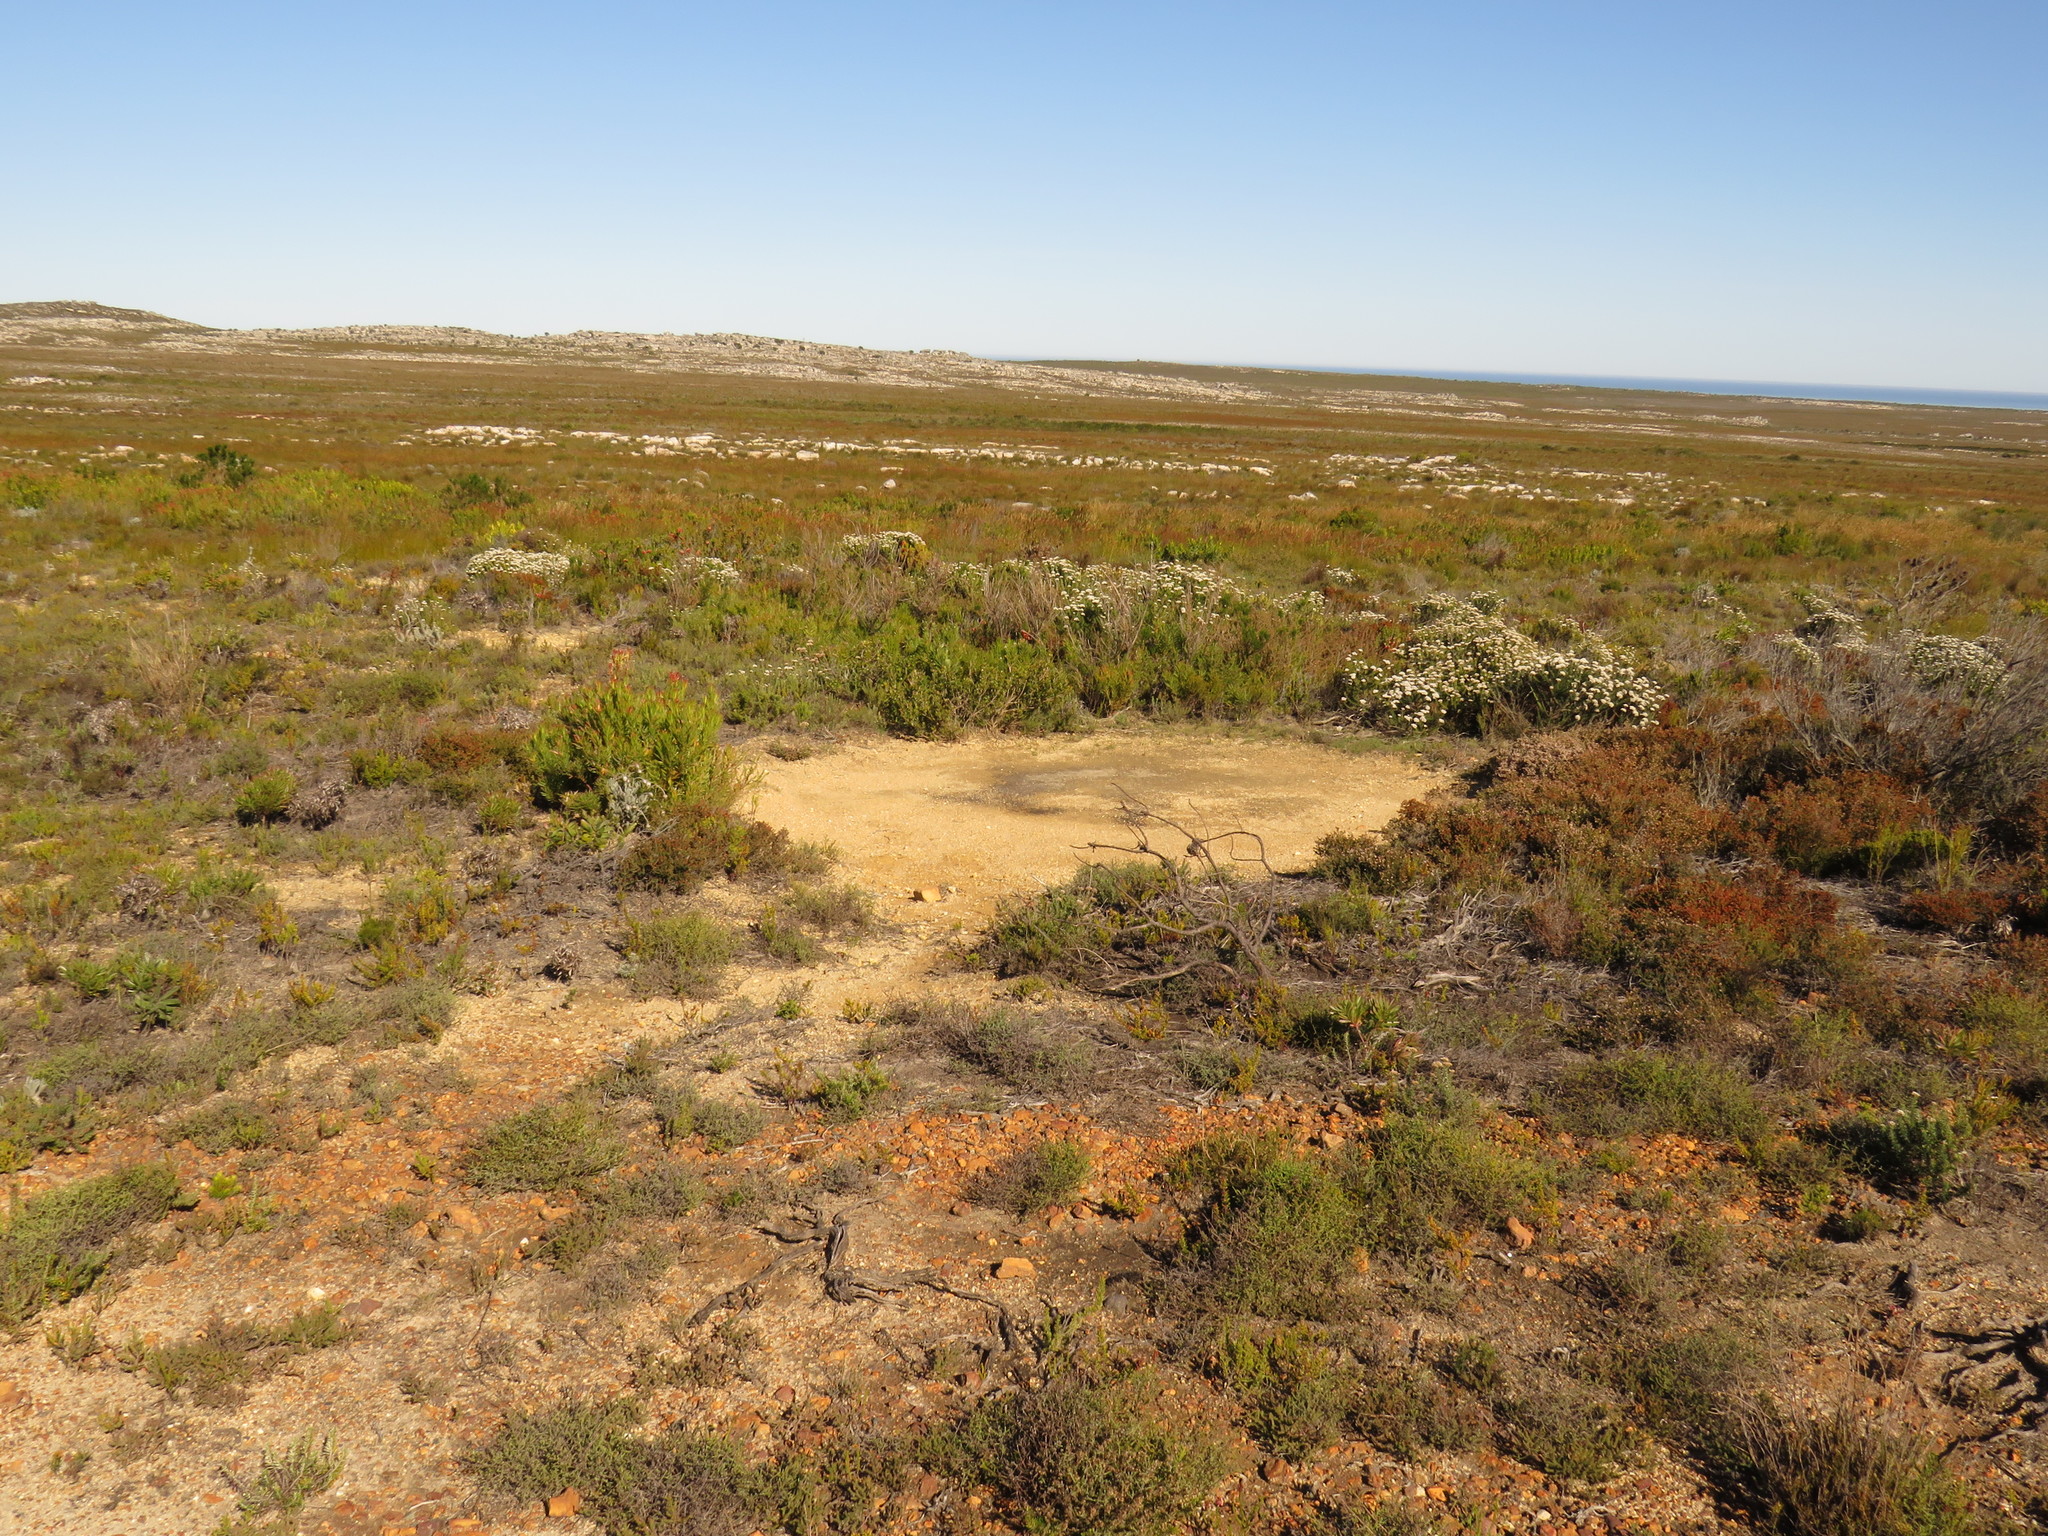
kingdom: Animalia
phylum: Chordata
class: Mammalia
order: Perissodactyla
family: Equidae
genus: Equus
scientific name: Equus zebra
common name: Mountain zebra
